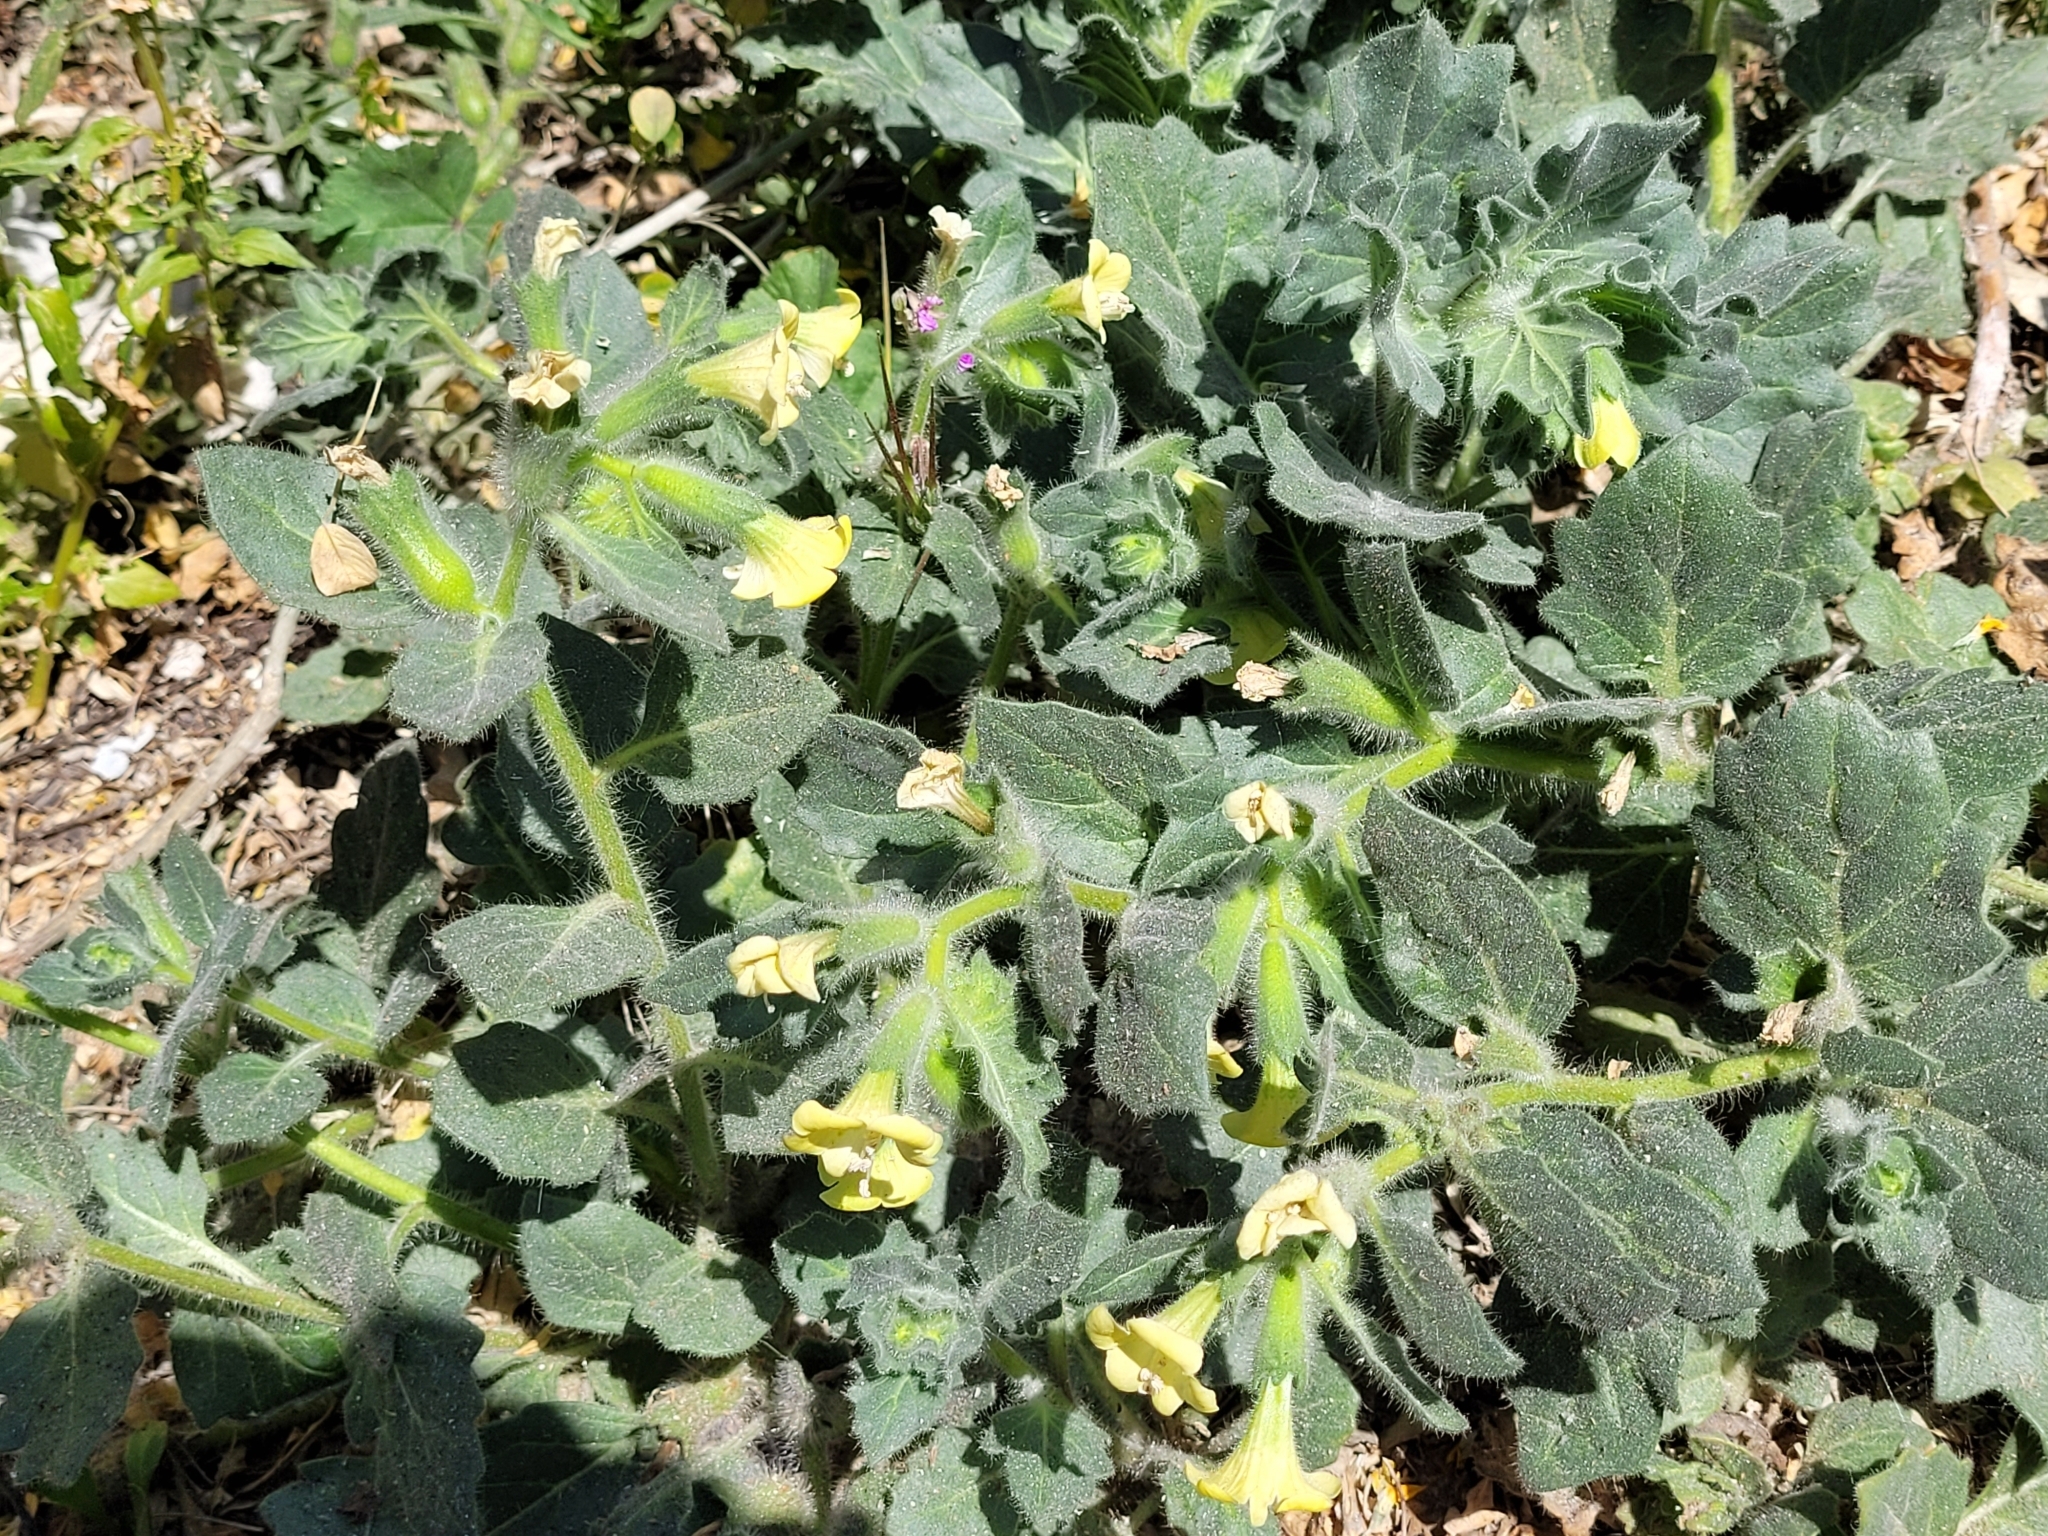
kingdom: Plantae
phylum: Tracheophyta
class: Magnoliopsida
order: Solanales
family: Solanaceae
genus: Hyoscyamus
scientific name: Hyoscyamus albus
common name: White henbane
